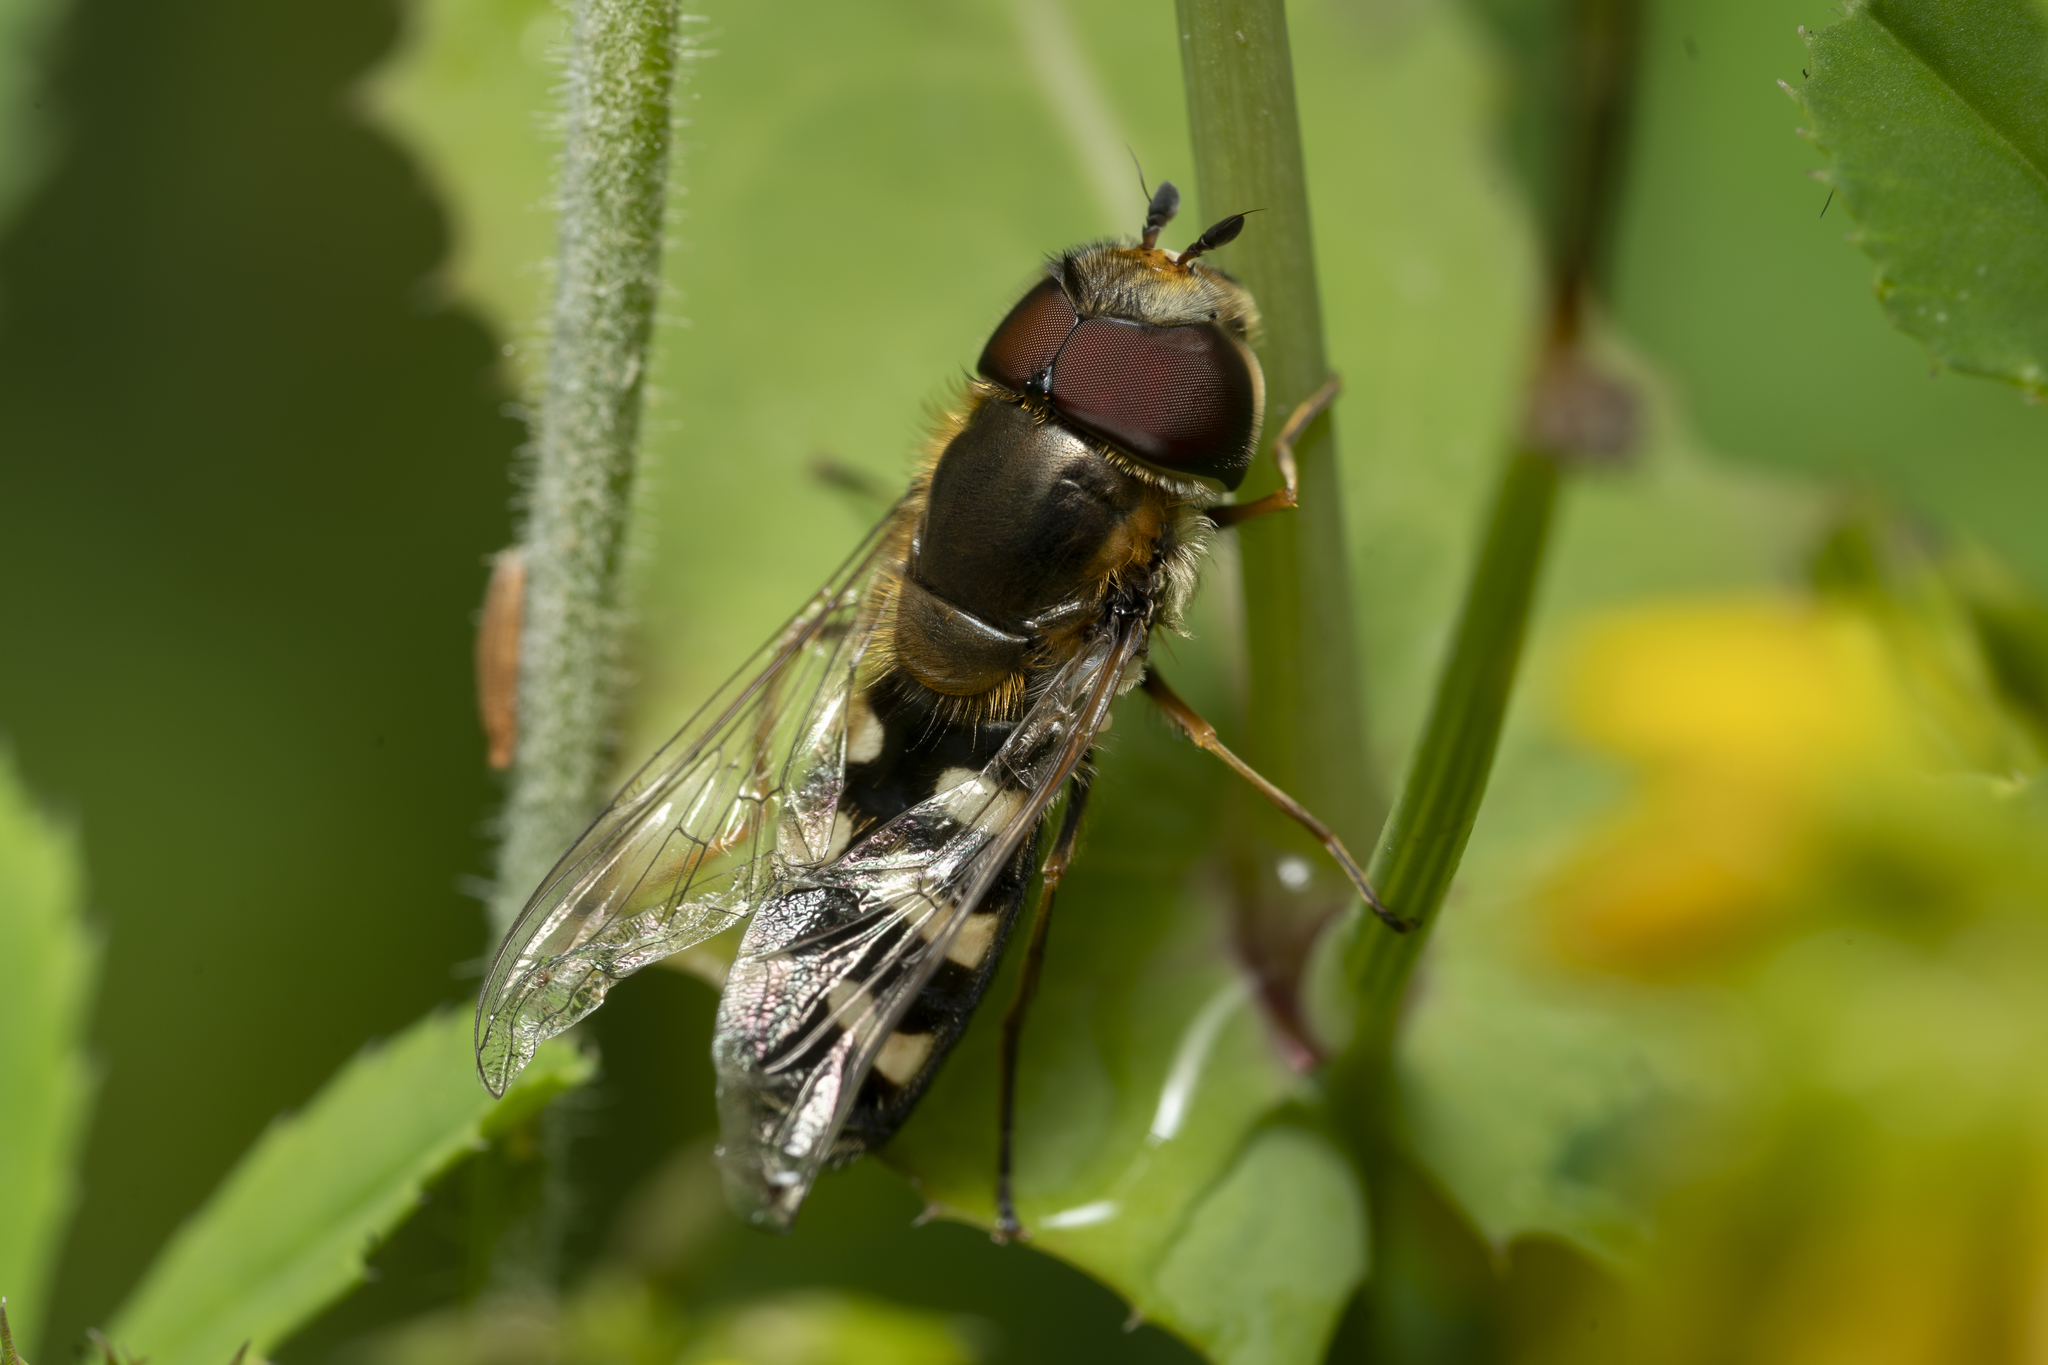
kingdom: Animalia
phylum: Arthropoda
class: Insecta
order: Diptera
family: Syrphidae
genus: Scaeva
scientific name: Scaeva pyrastri
